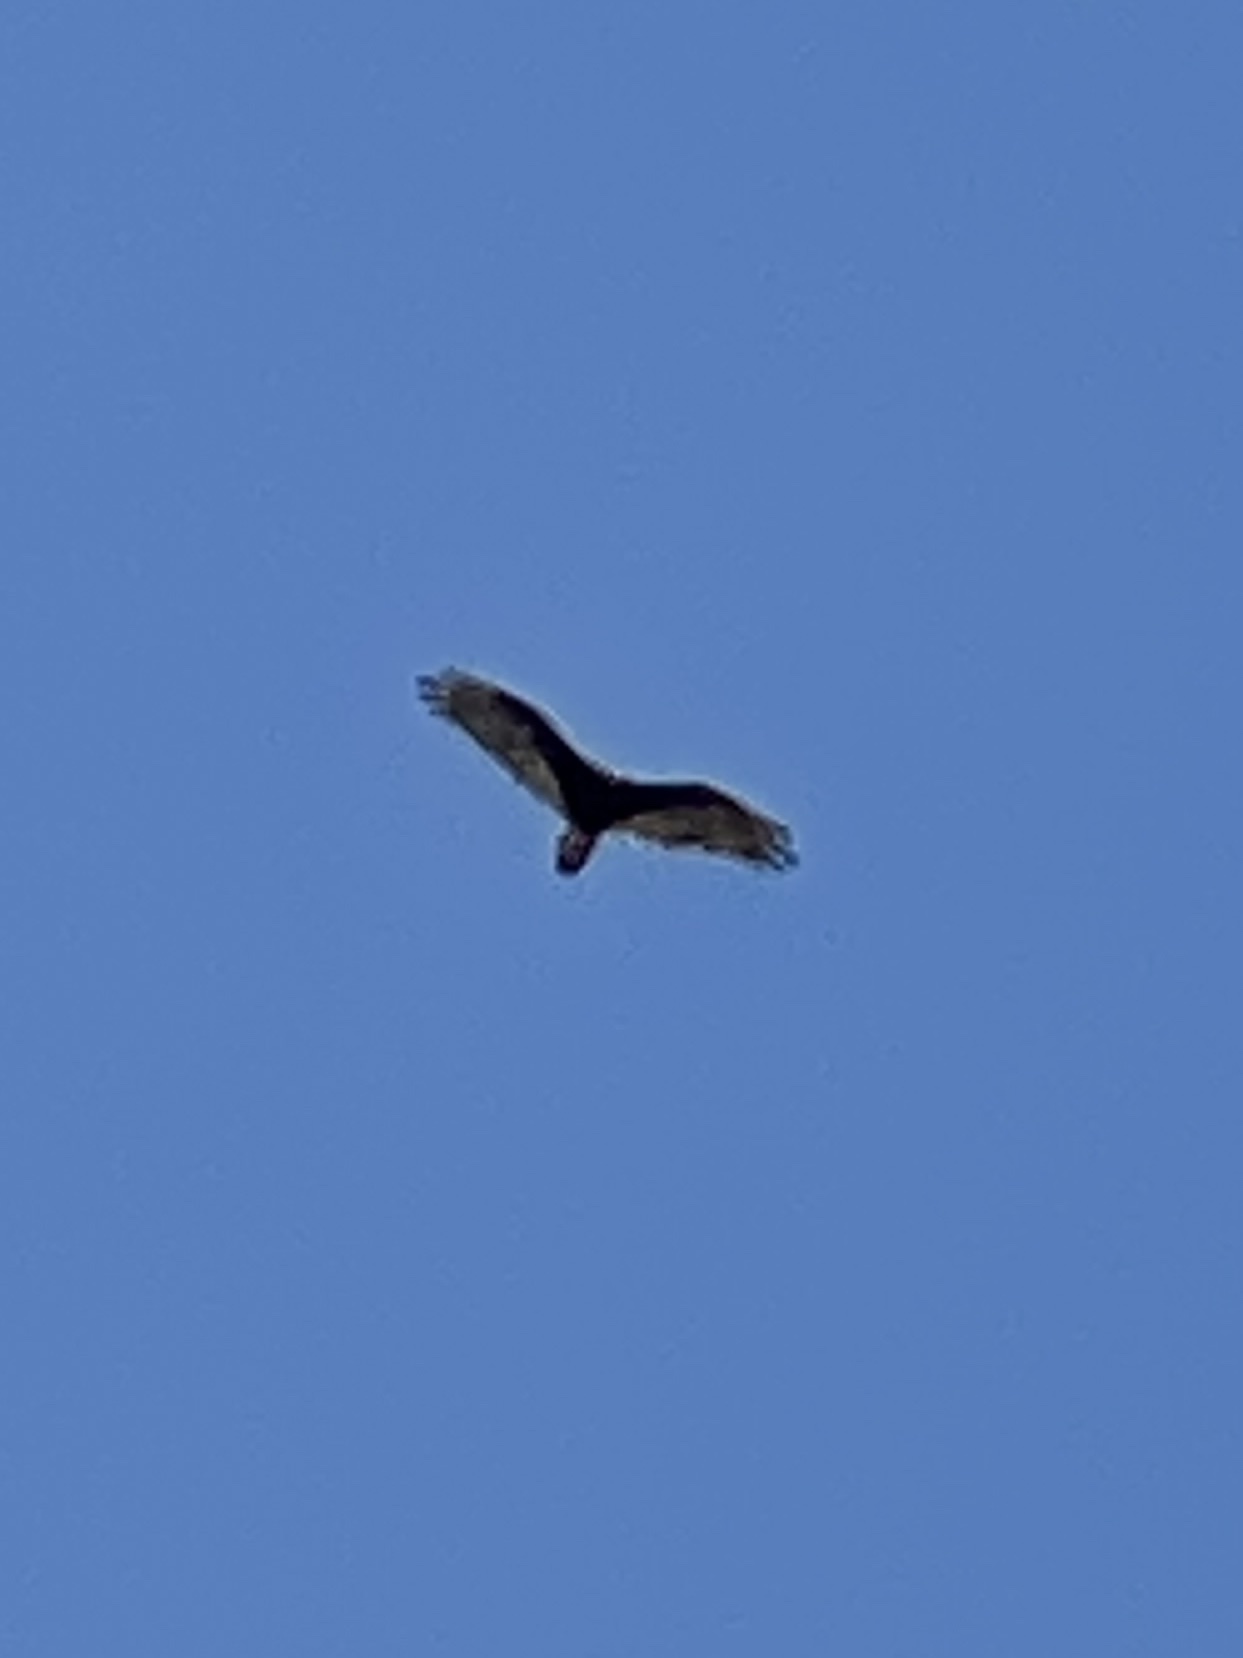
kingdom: Animalia
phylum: Chordata
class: Aves
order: Accipitriformes
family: Cathartidae
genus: Cathartes
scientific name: Cathartes aura
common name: Turkey vulture
